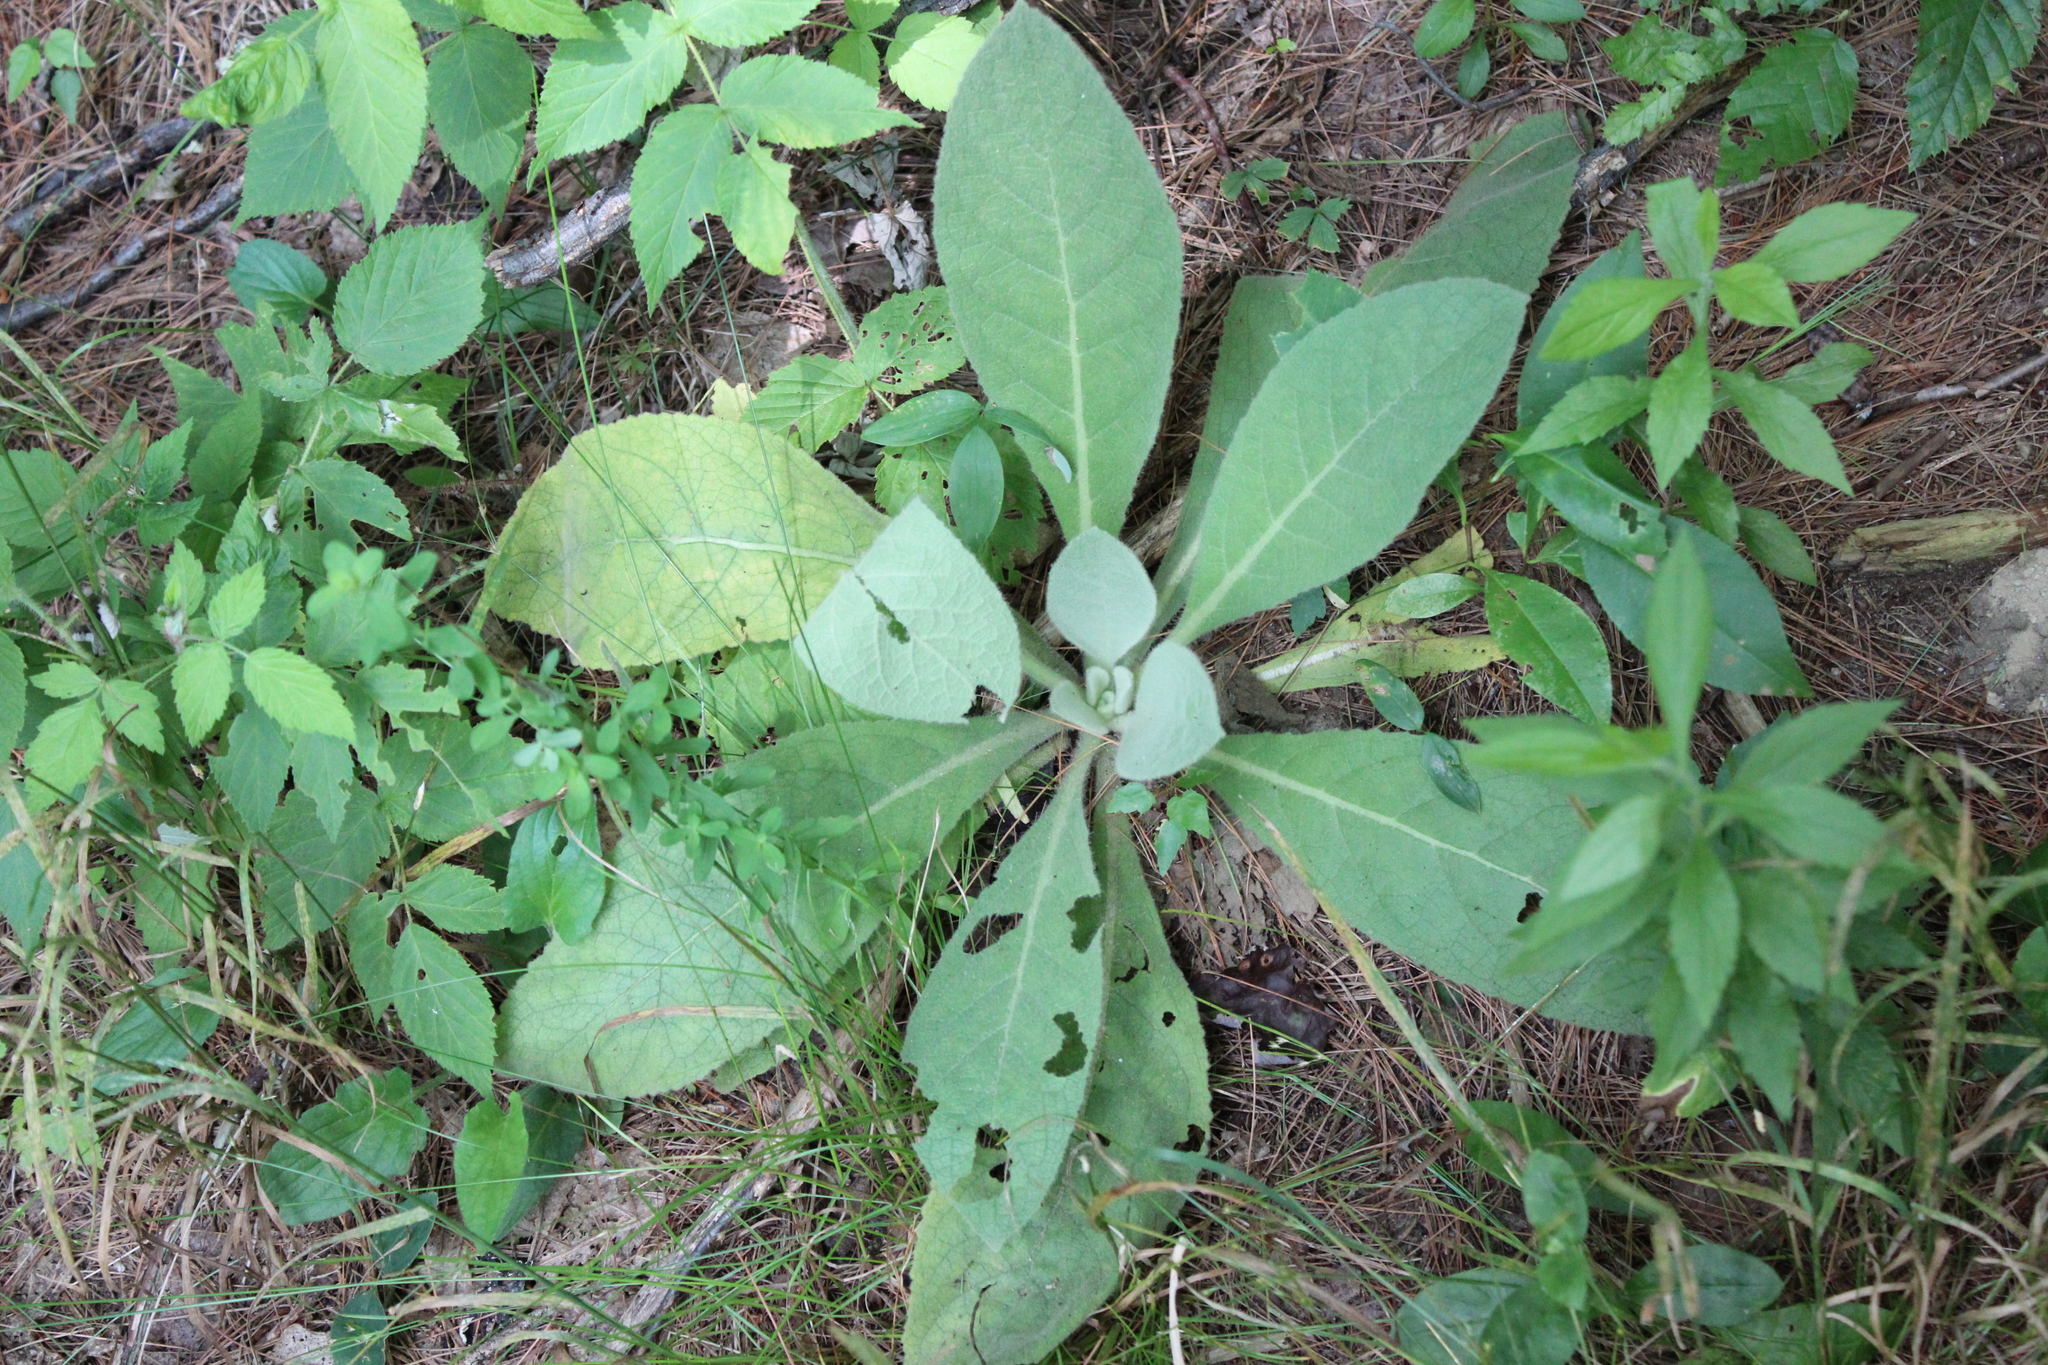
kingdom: Plantae
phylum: Tracheophyta
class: Magnoliopsida
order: Lamiales
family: Scrophulariaceae
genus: Verbascum
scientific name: Verbascum thapsus
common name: Common mullein
